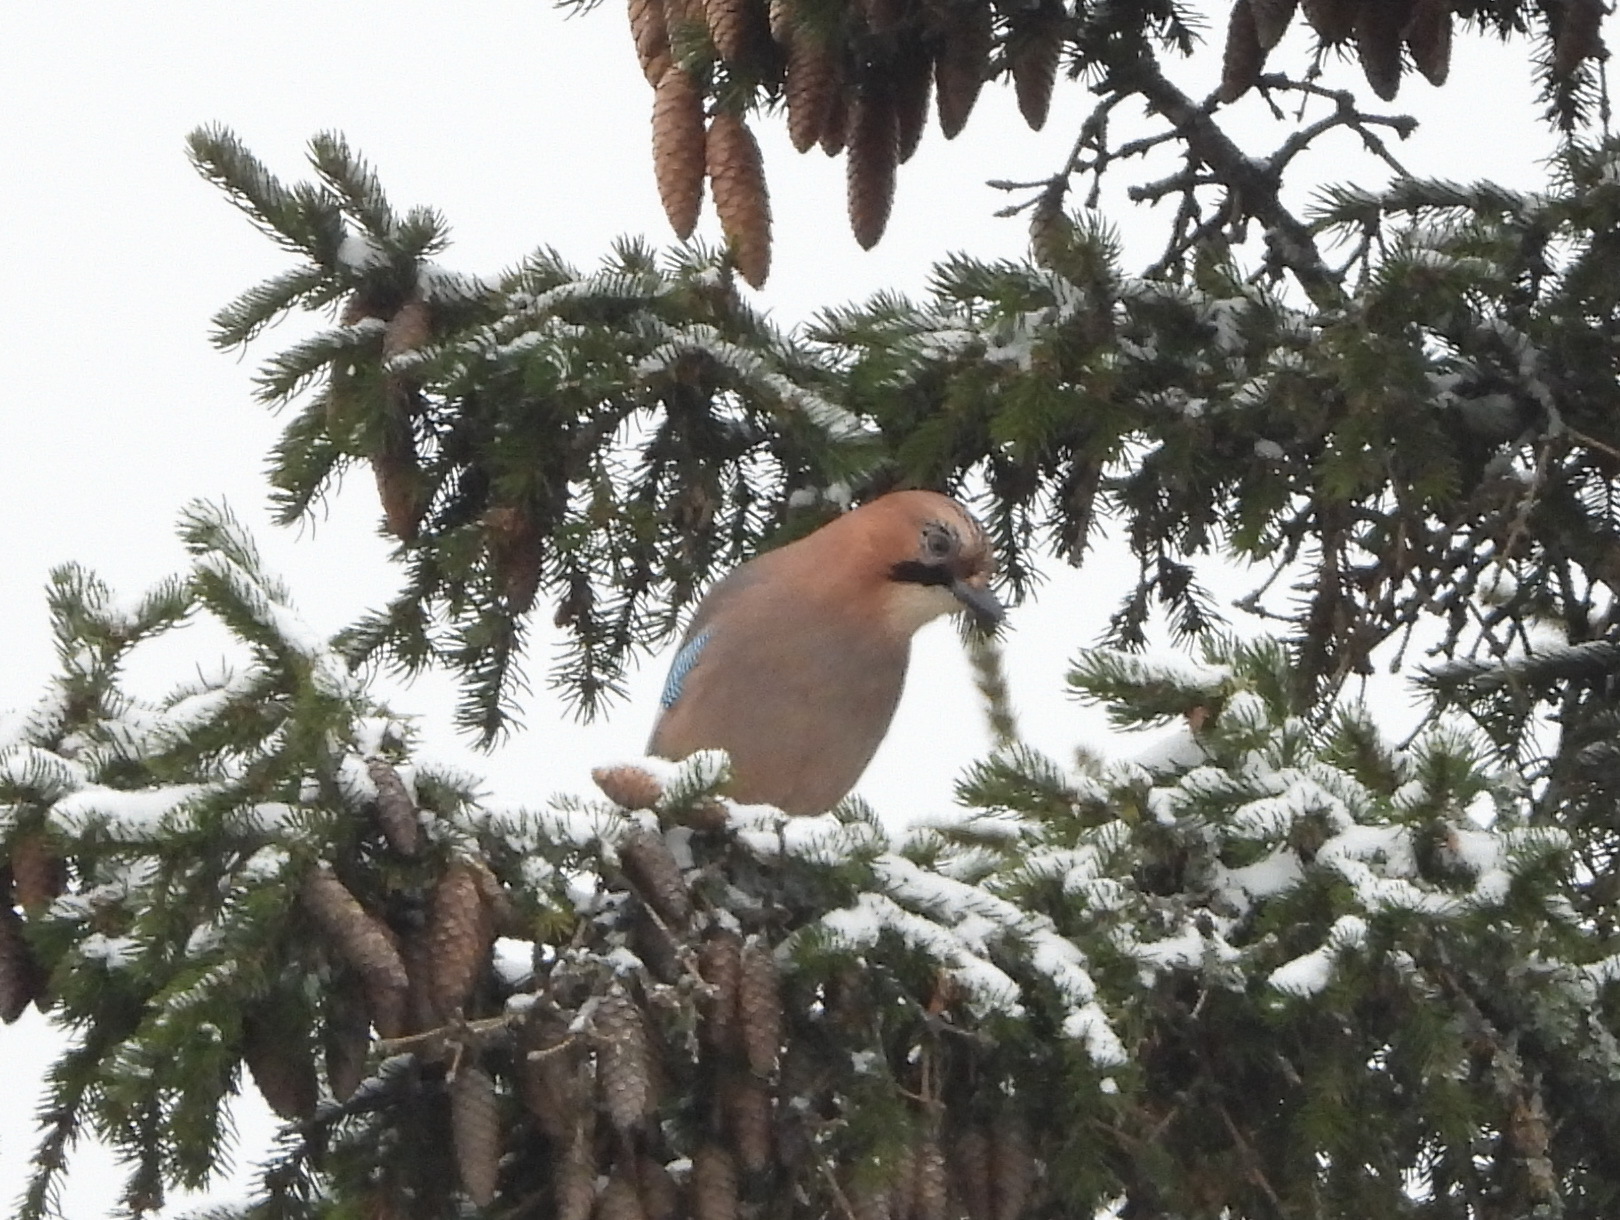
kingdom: Animalia
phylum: Chordata
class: Aves
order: Passeriformes
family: Corvidae
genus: Garrulus
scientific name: Garrulus glandarius
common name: Eurasian jay
